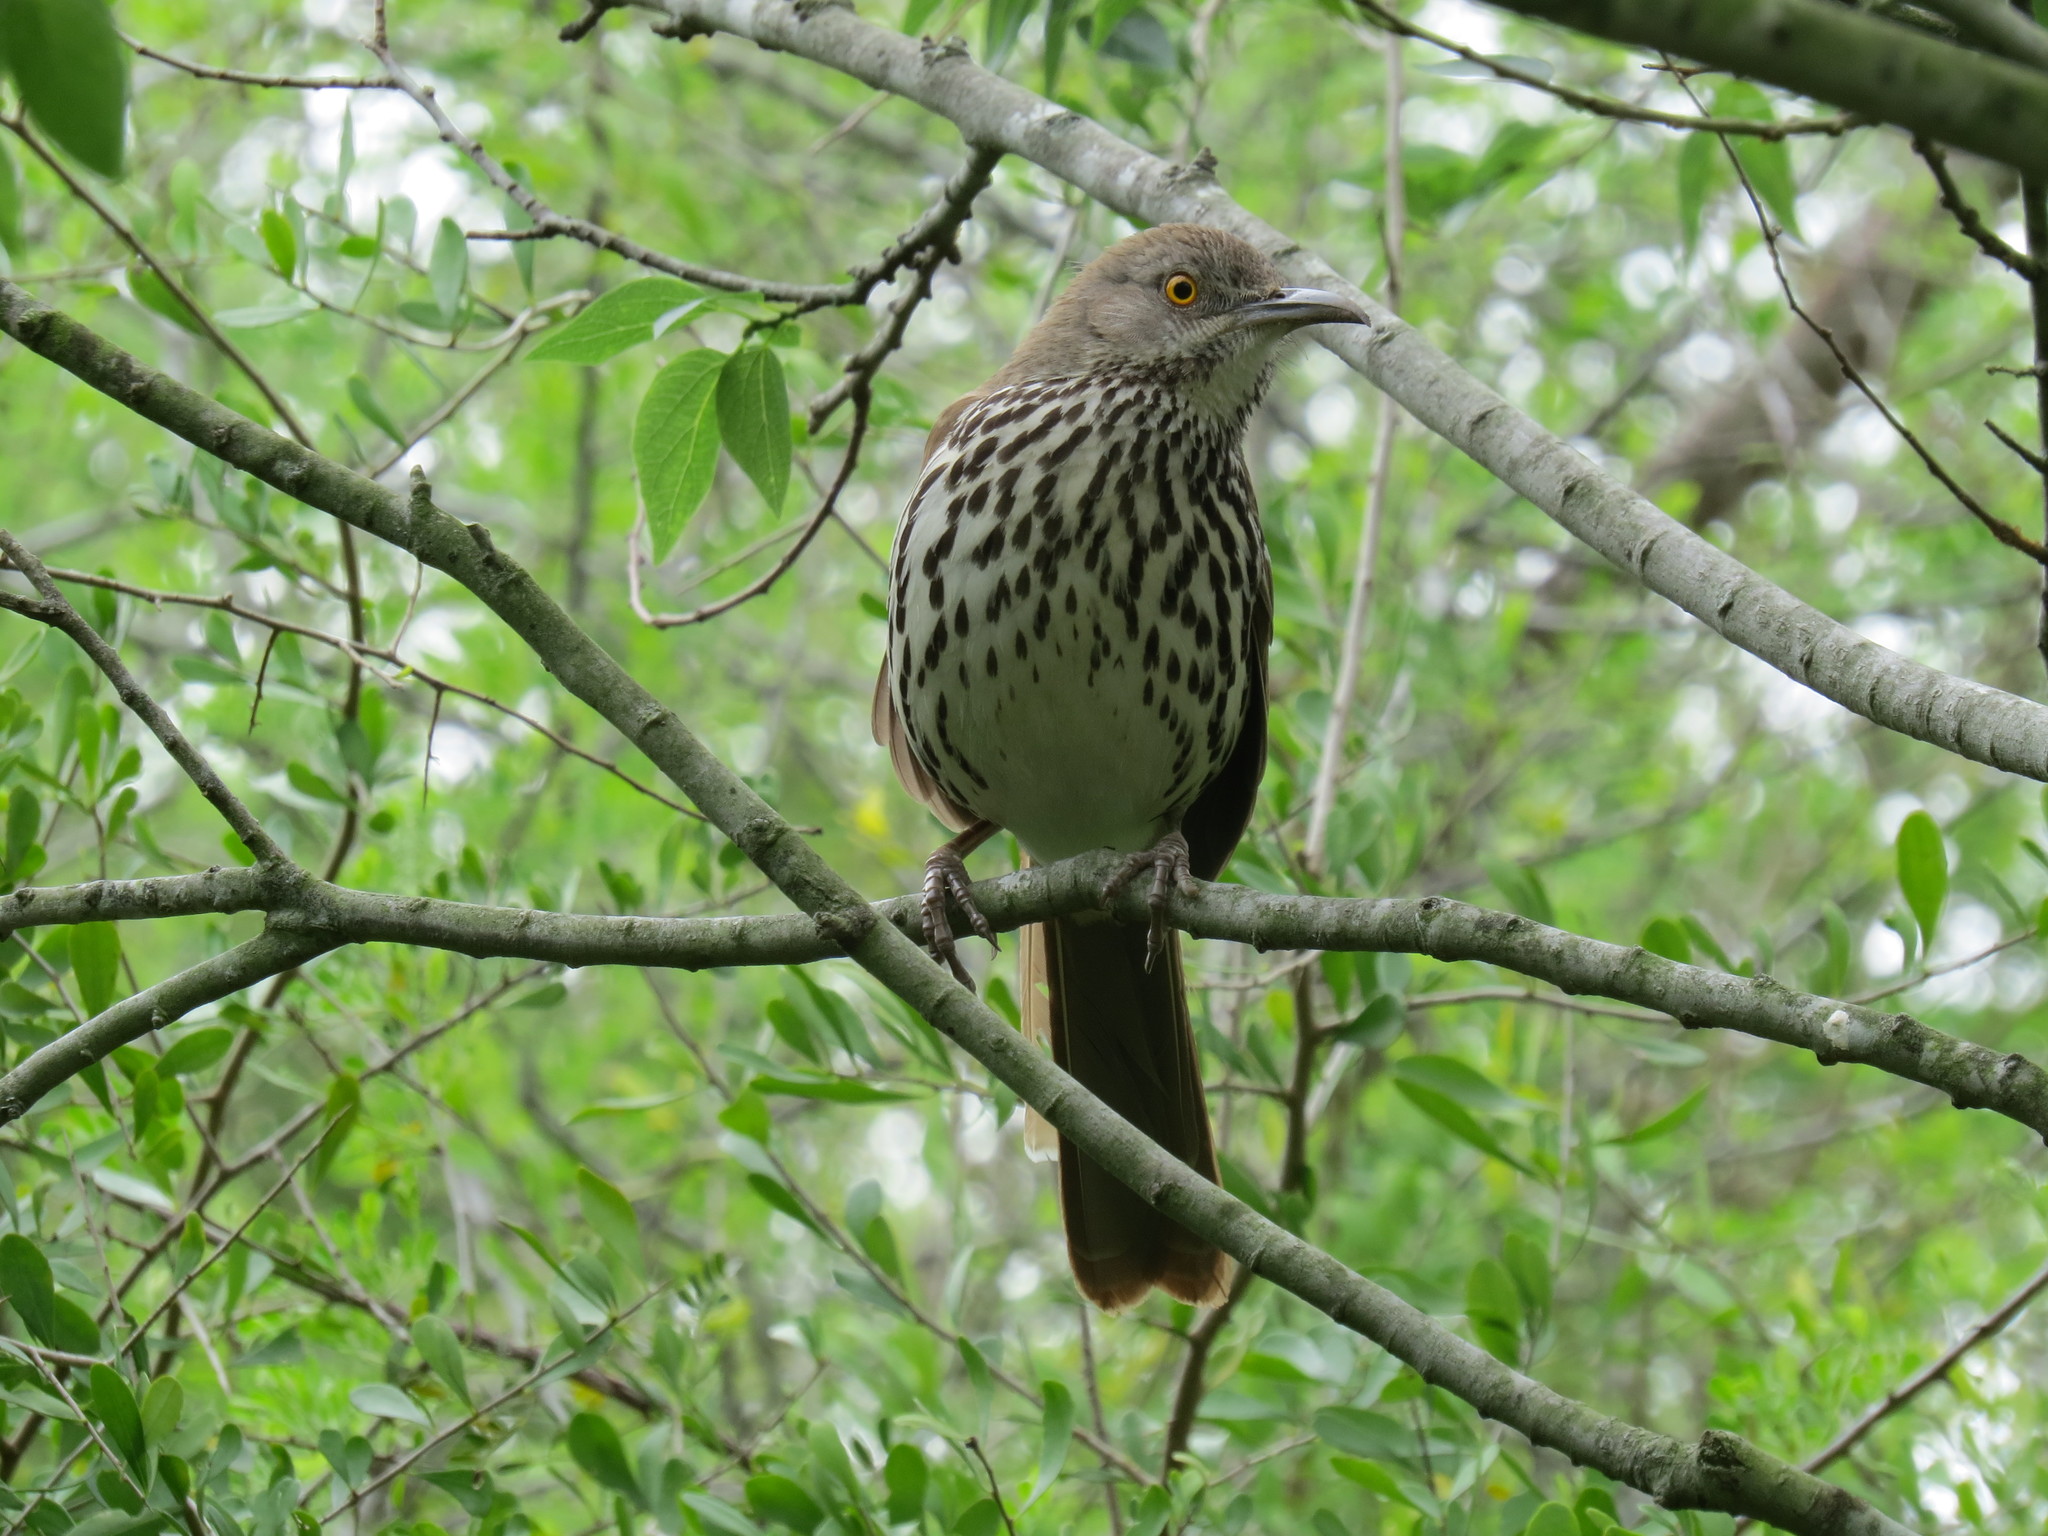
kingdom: Animalia
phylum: Chordata
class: Aves
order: Passeriformes
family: Mimidae
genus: Toxostoma
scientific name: Toxostoma longirostre
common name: Long-billed thrasher
